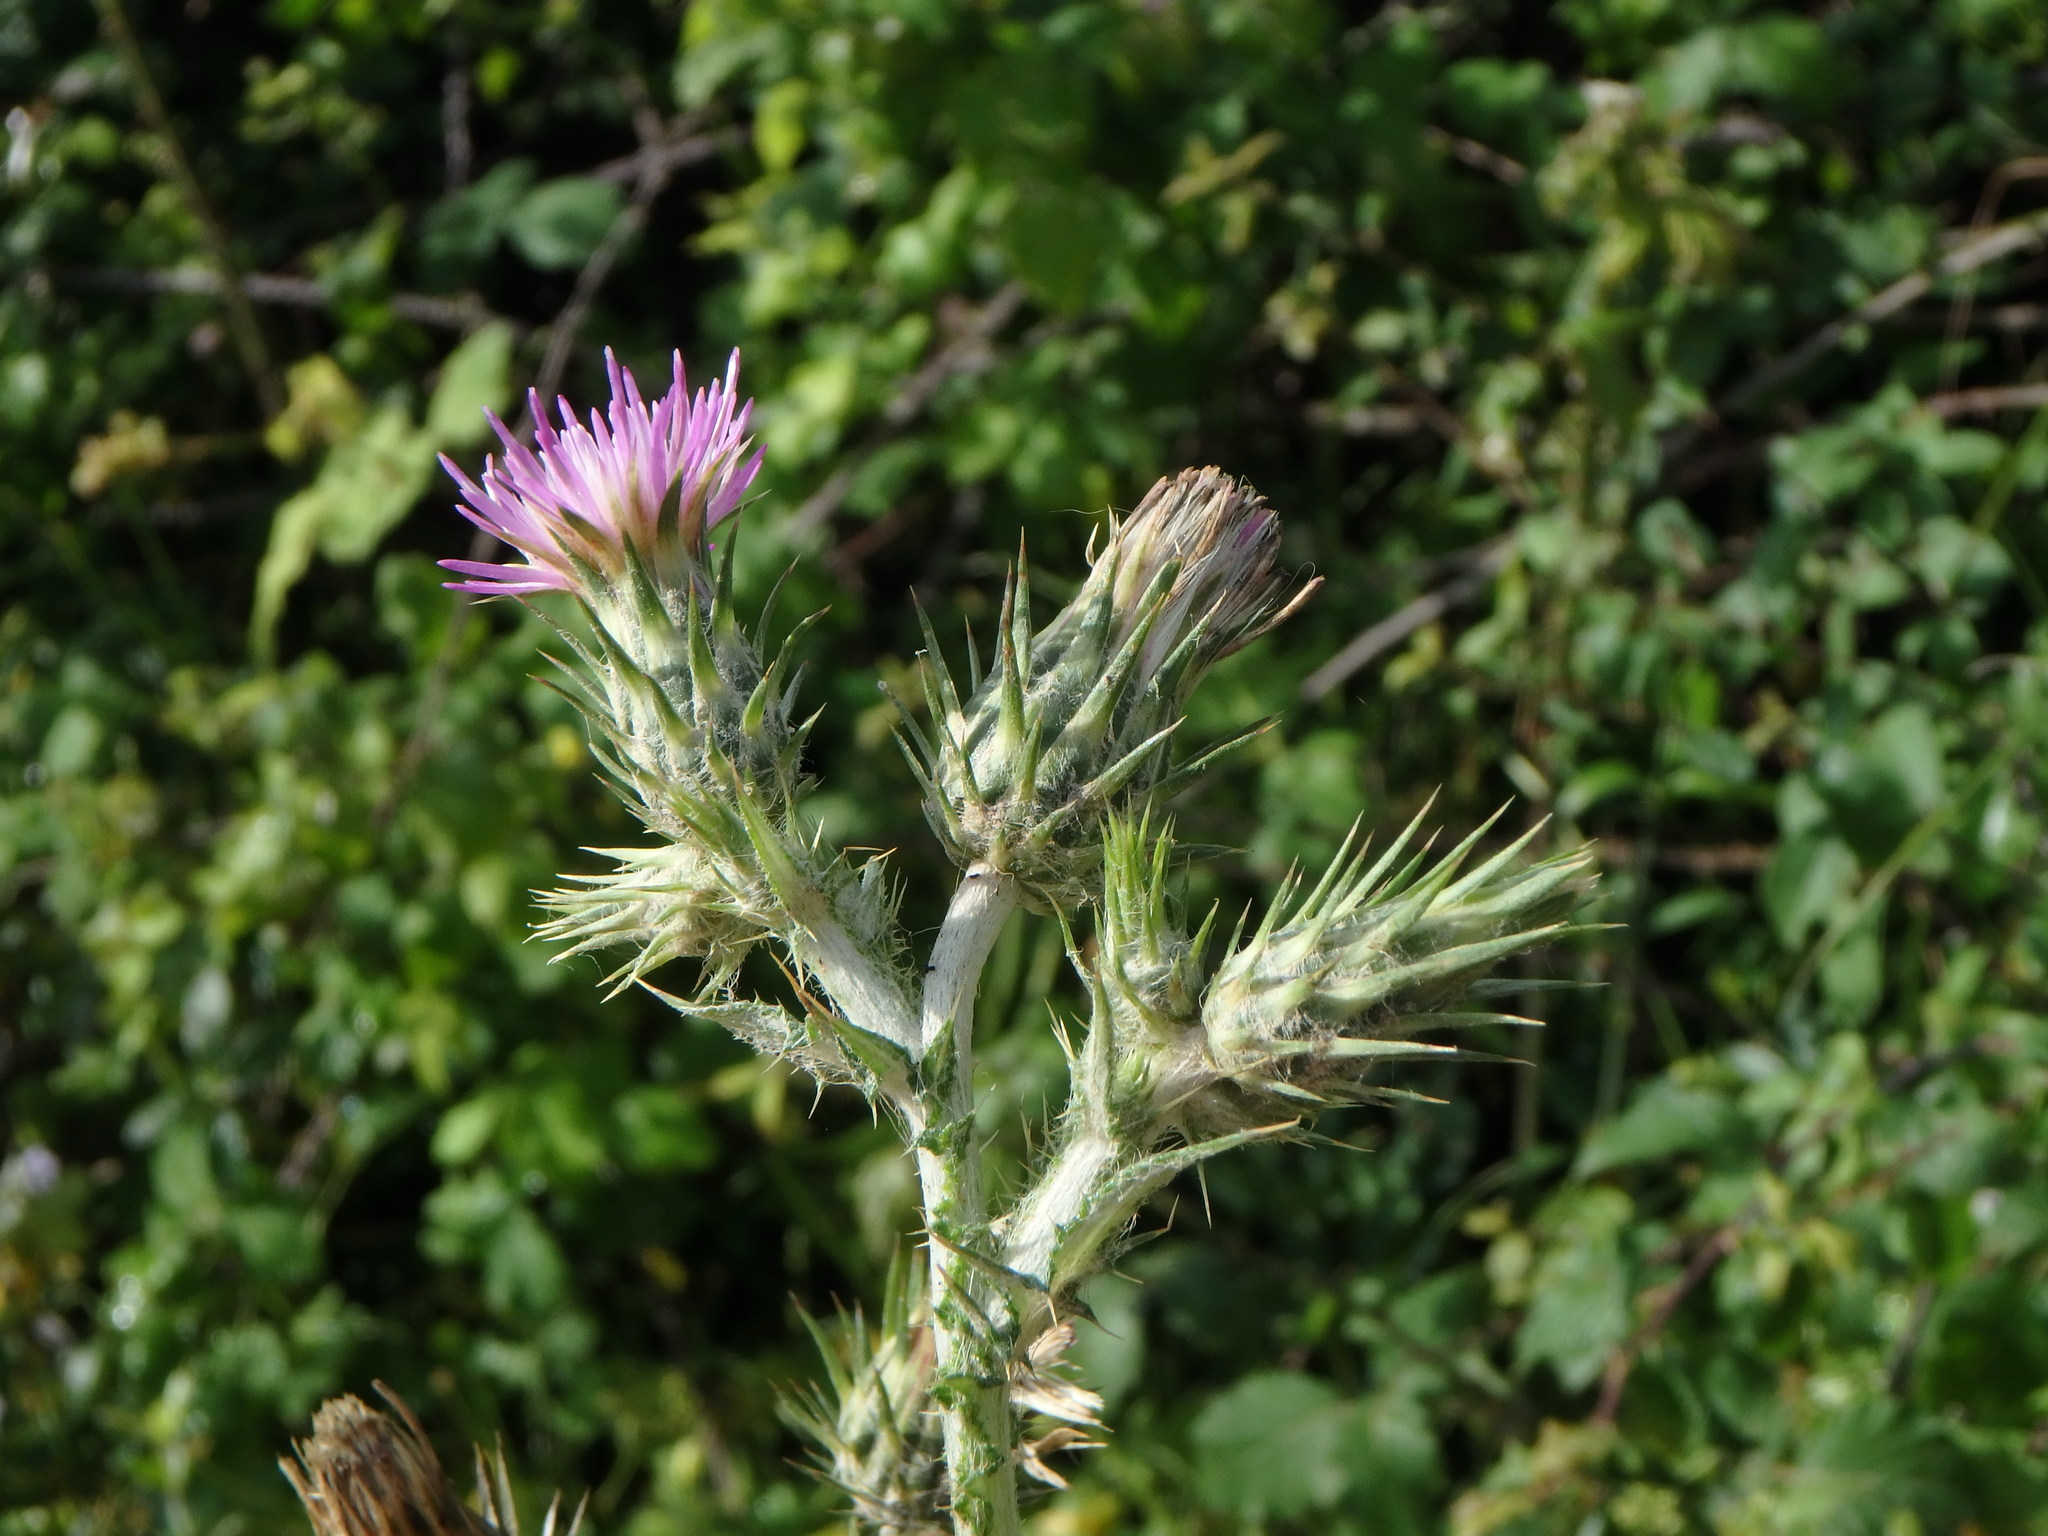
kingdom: Plantae
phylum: Tracheophyta
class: Magnoliopsida
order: Asterales
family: Asteraceae
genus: Carduus
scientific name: Carduus pycnocephalus
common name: Plymouth thistle
